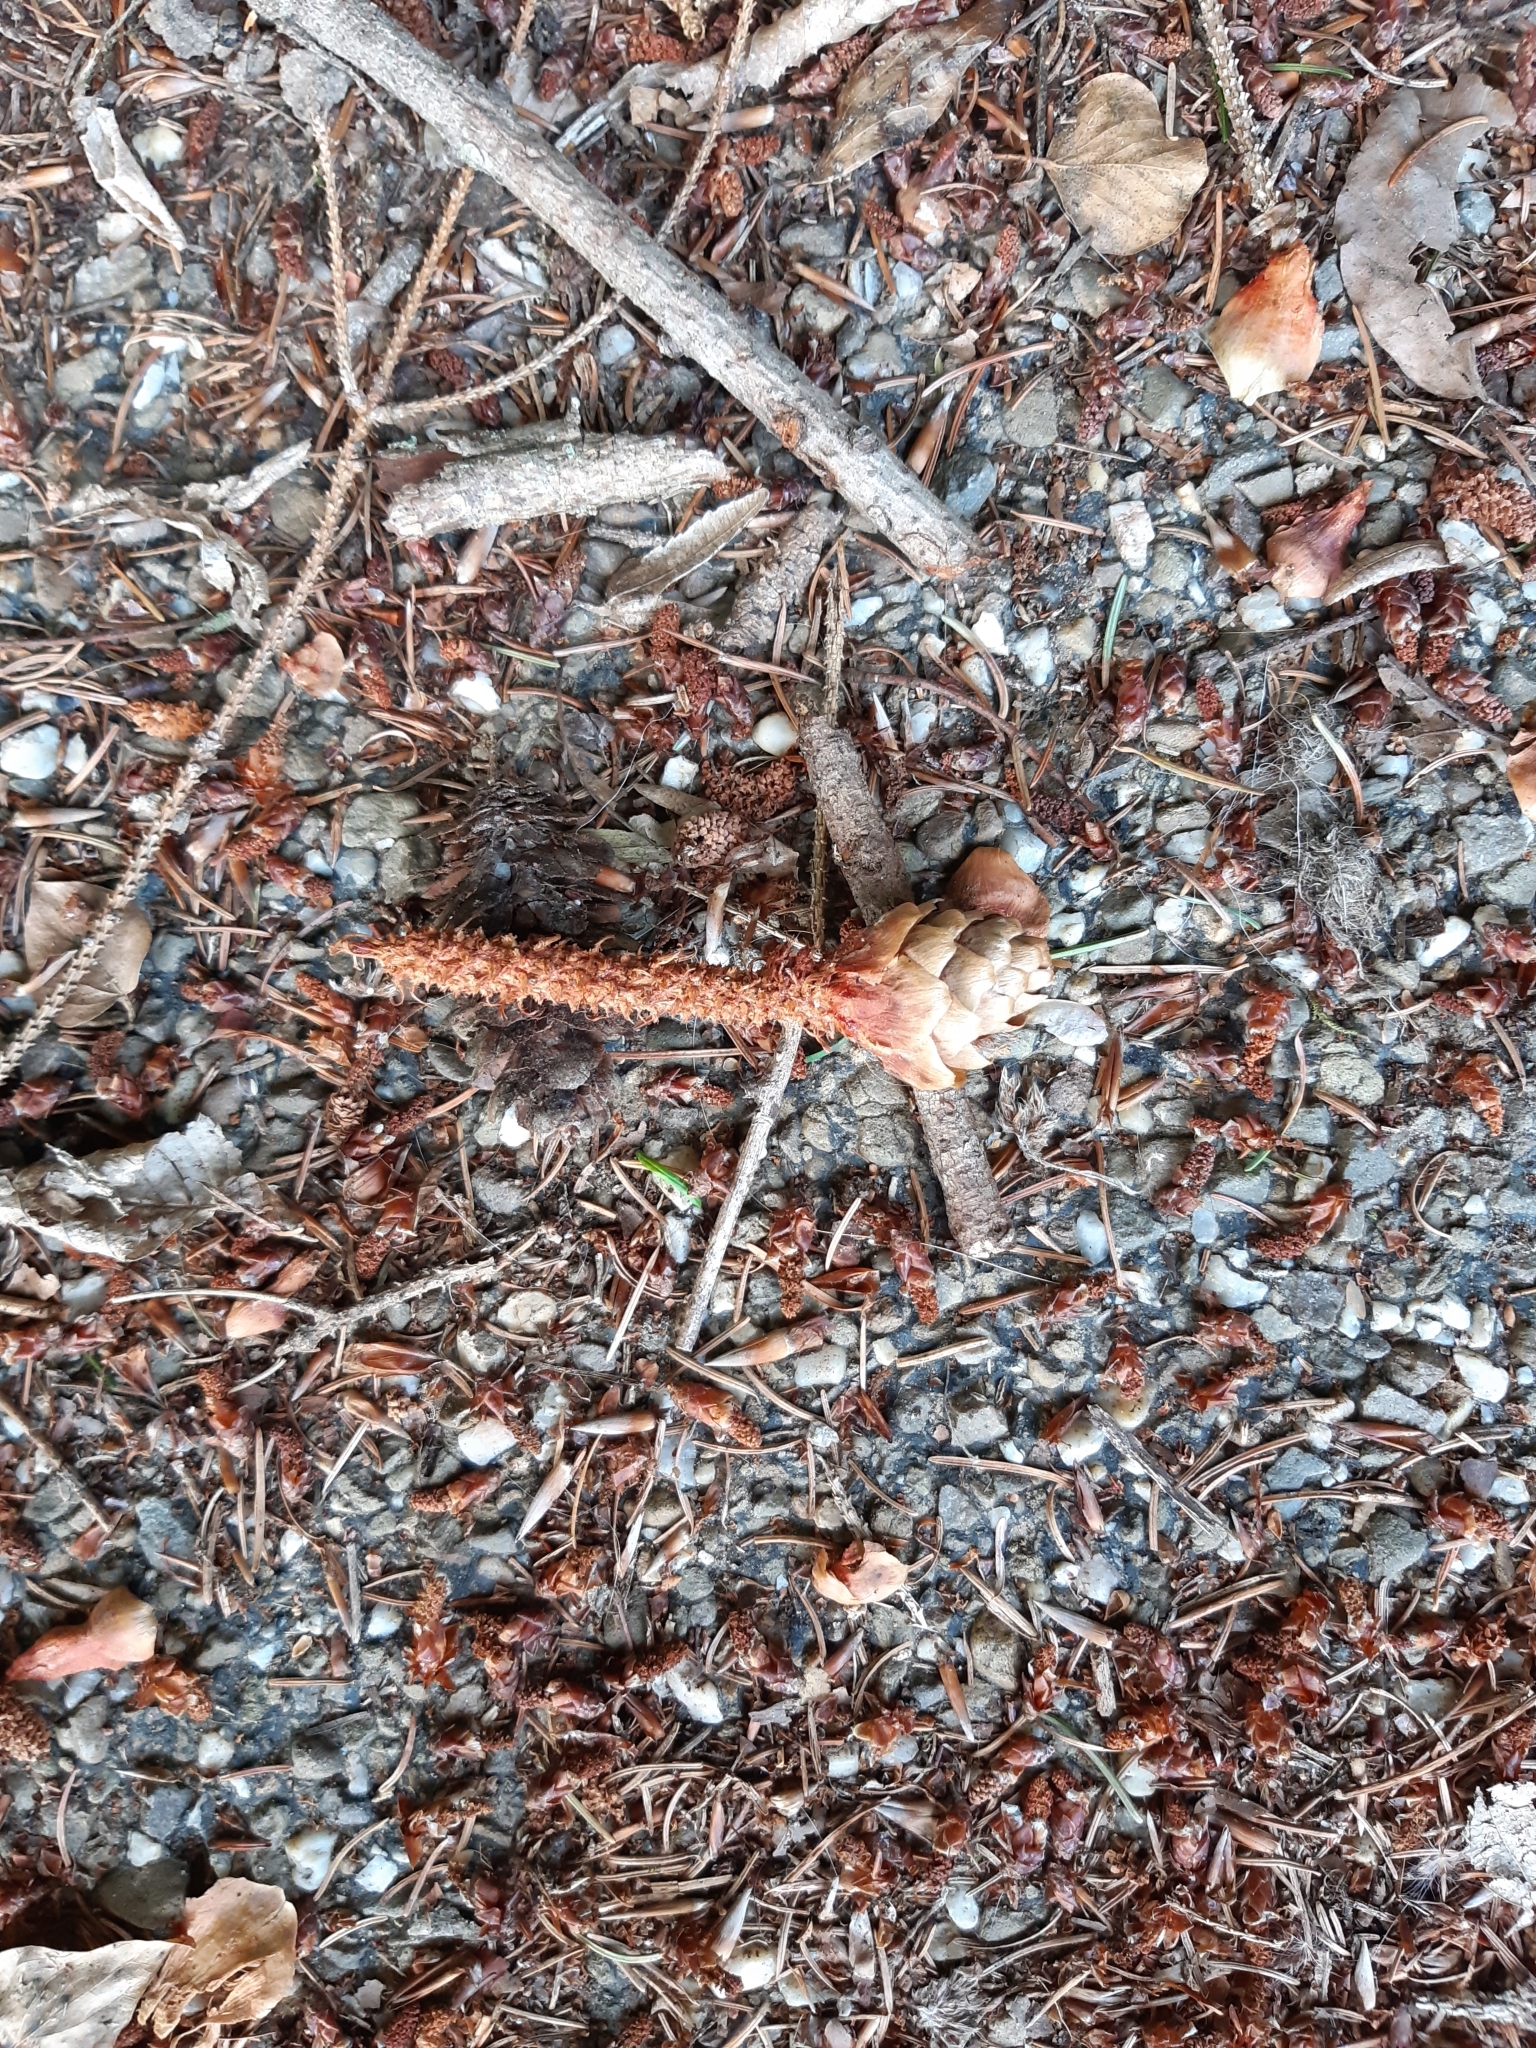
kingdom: Animalia
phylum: Chordata
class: Mammalia
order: Rodentia
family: Sciuridae
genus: Sciurus
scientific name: Sciurus vulgaris
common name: Eurasian red squirrel
